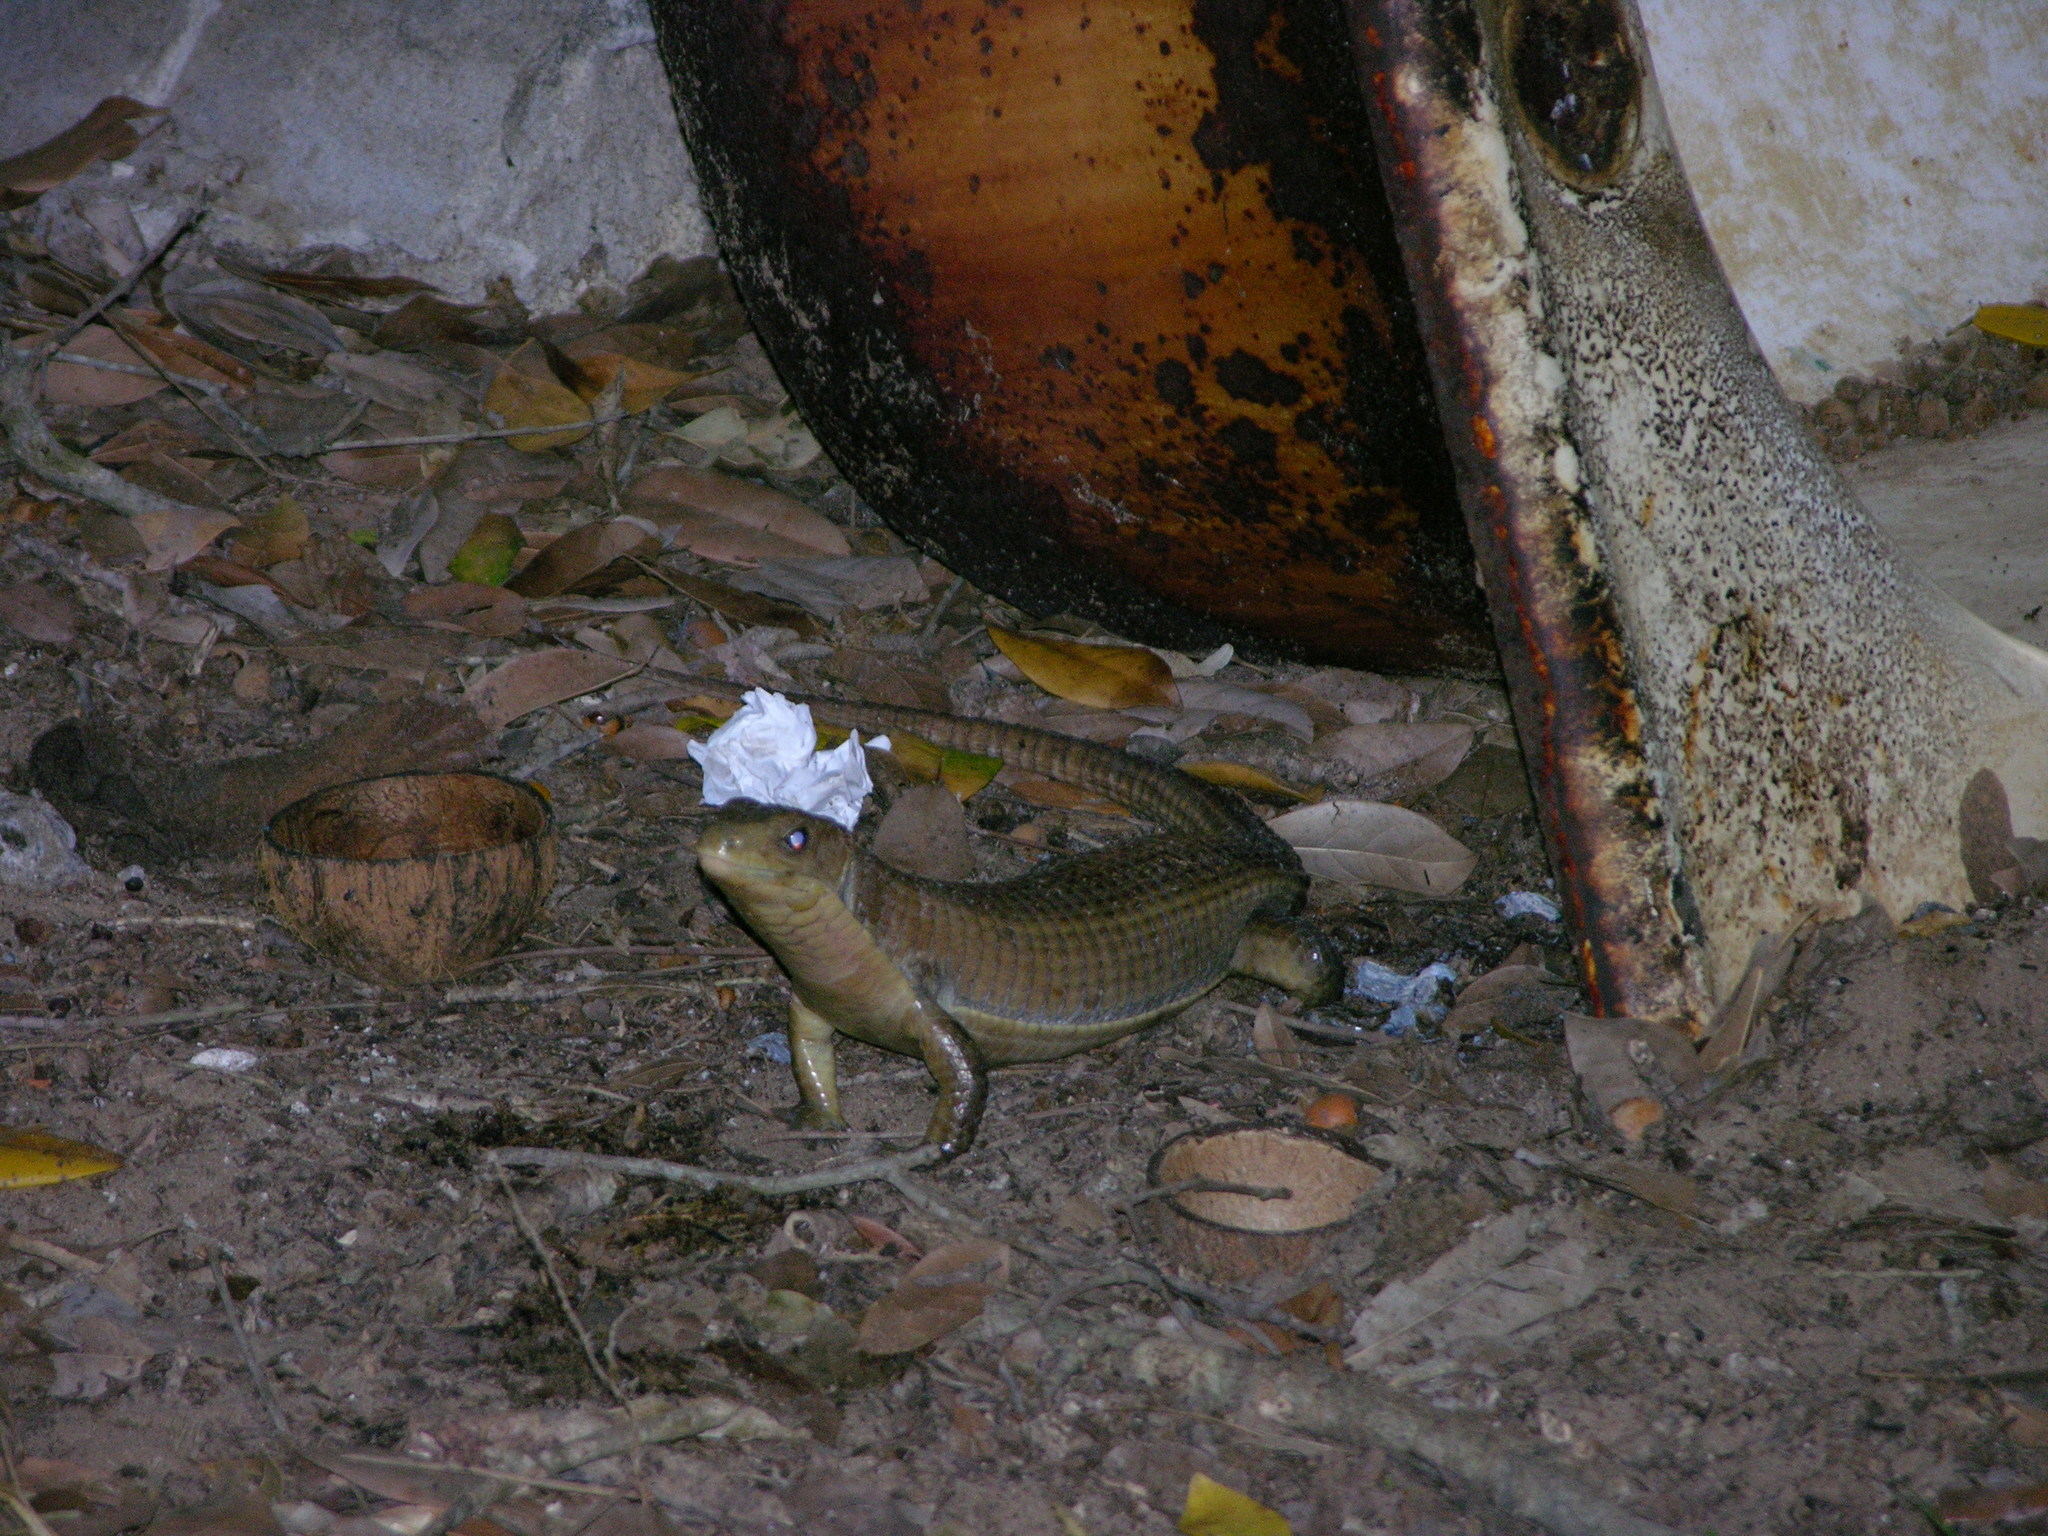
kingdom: Animalia
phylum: Chordata
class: Squamata
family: Gerrhosauridae
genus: Broadleysaurus
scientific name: Broadleysaurus major
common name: Rough-scaled plated lizard
